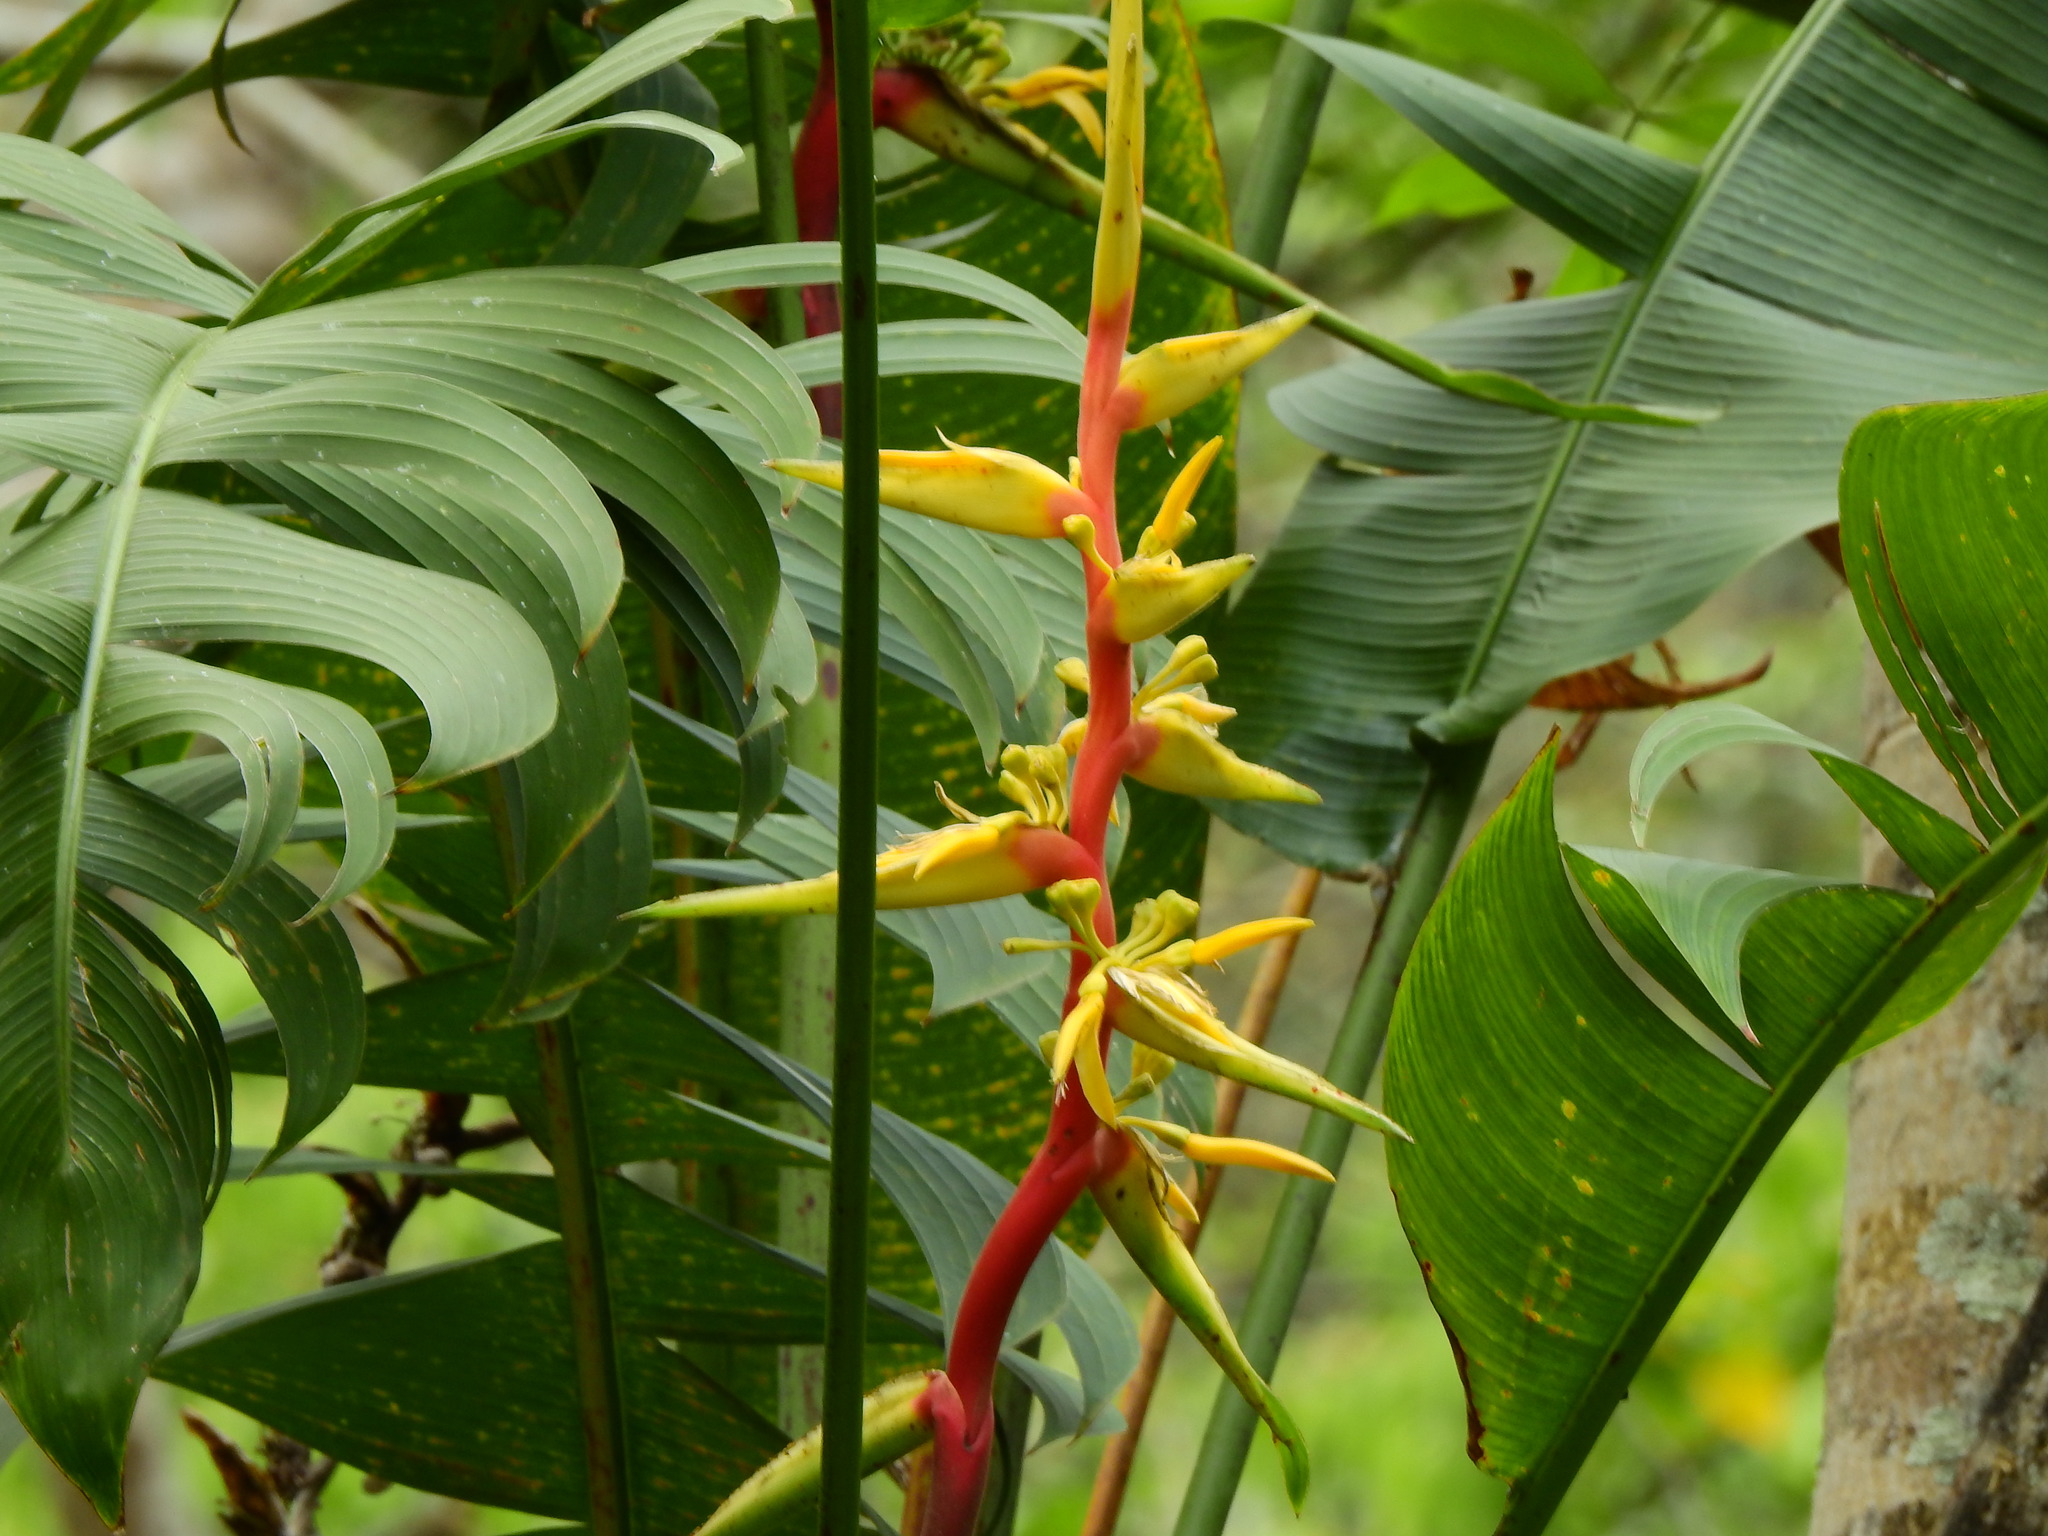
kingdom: Plantae
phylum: Tracheophyta
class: Liliopsida
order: Zingiberales
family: Heliconiaceae
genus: Heliconia
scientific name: Heliconia spissa
